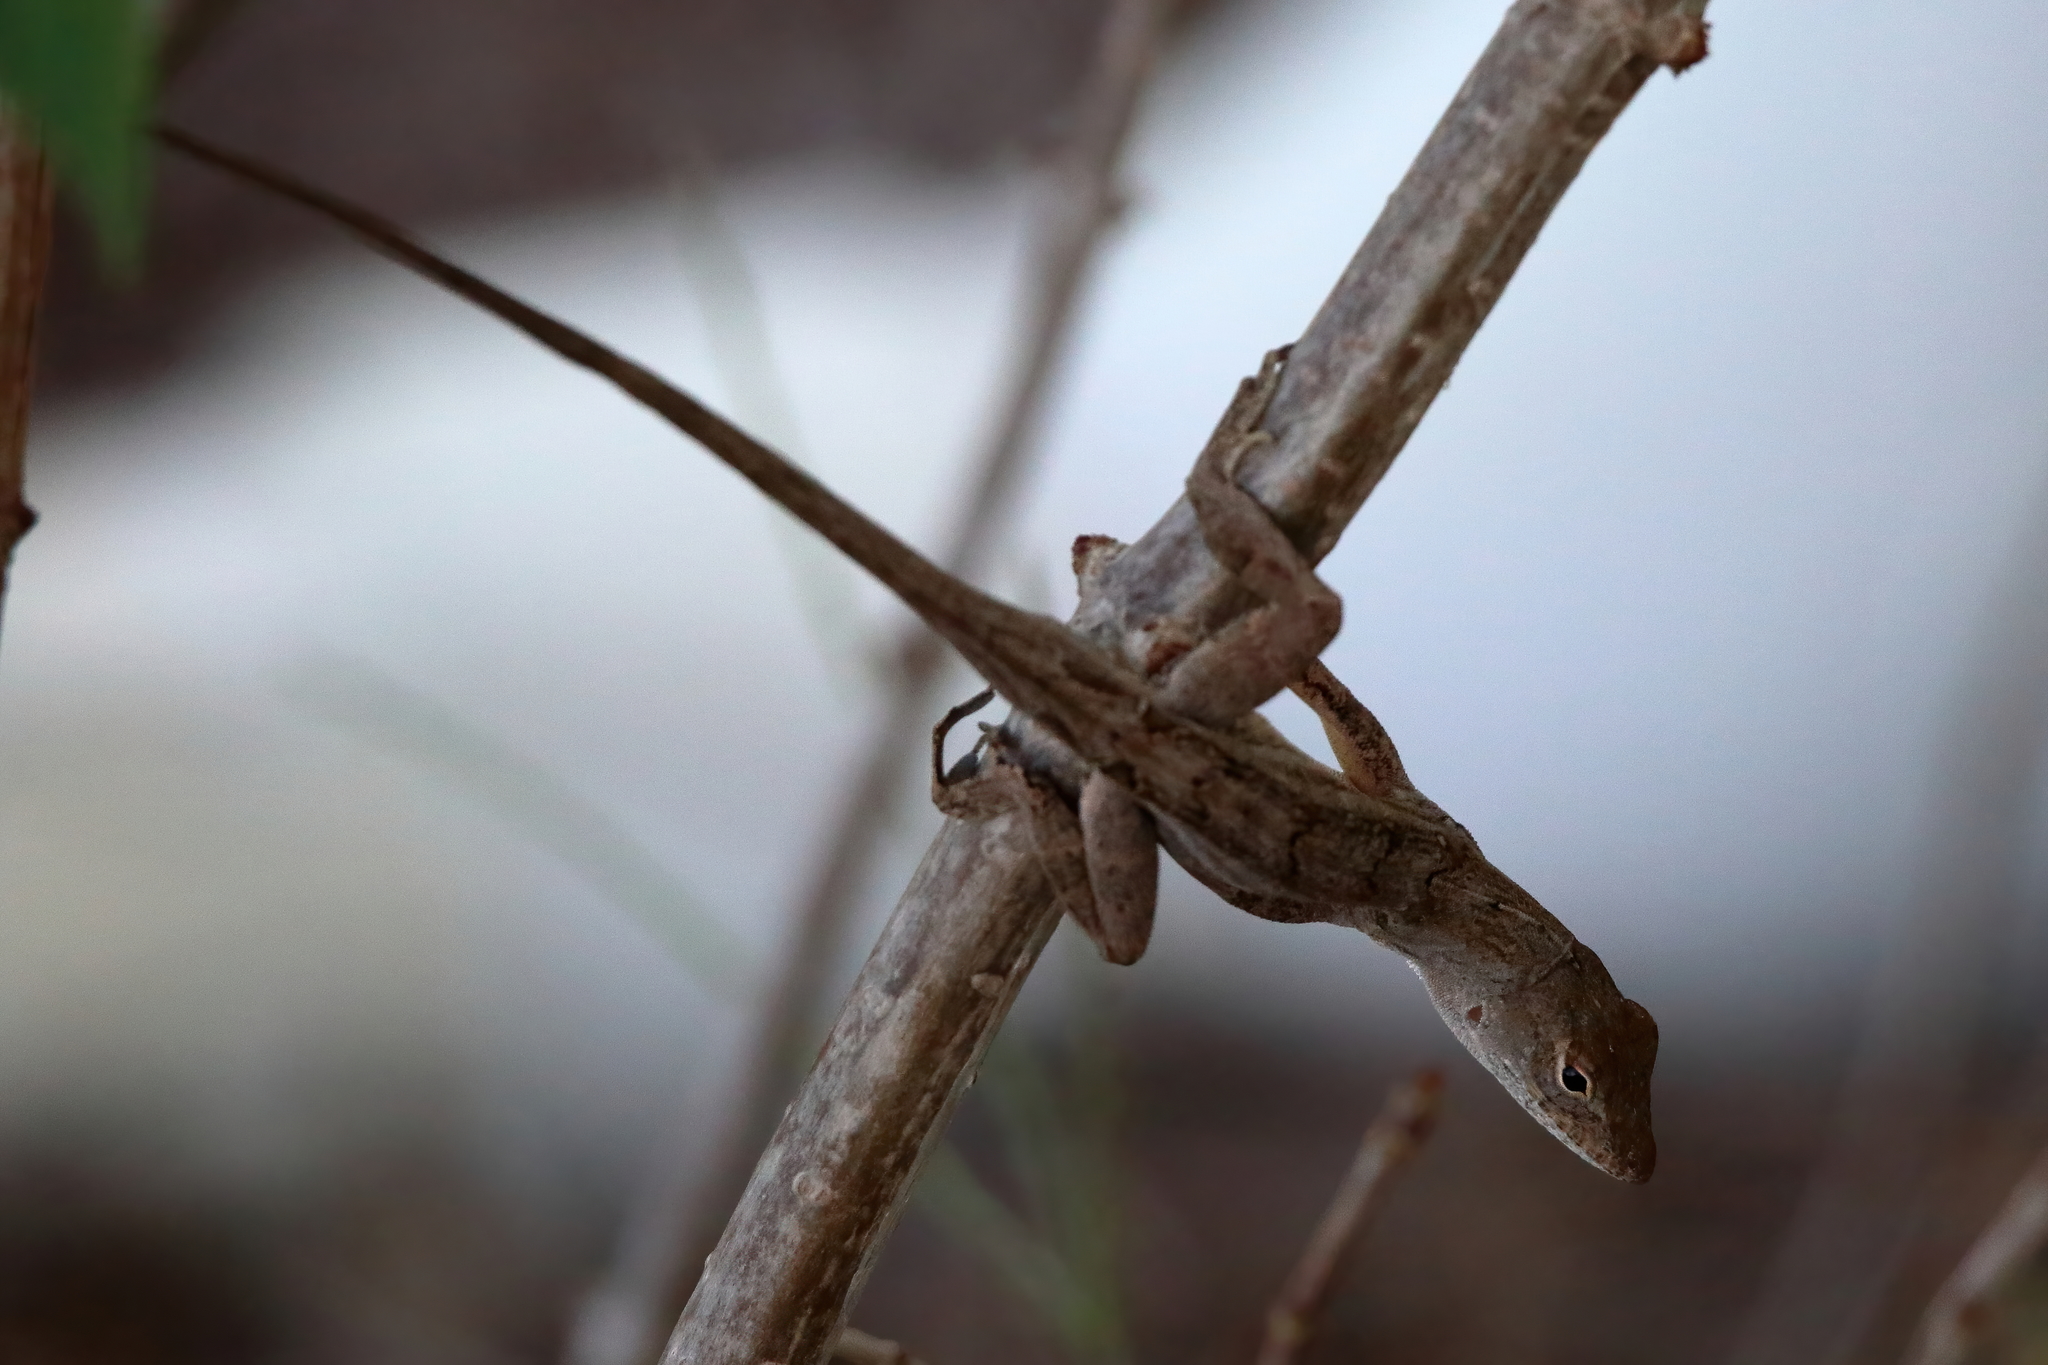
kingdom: Animalia
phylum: Chordata
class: Squamata
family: Dactyloidae
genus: Anolis
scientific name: Anolis sagrei
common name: Brown anole
